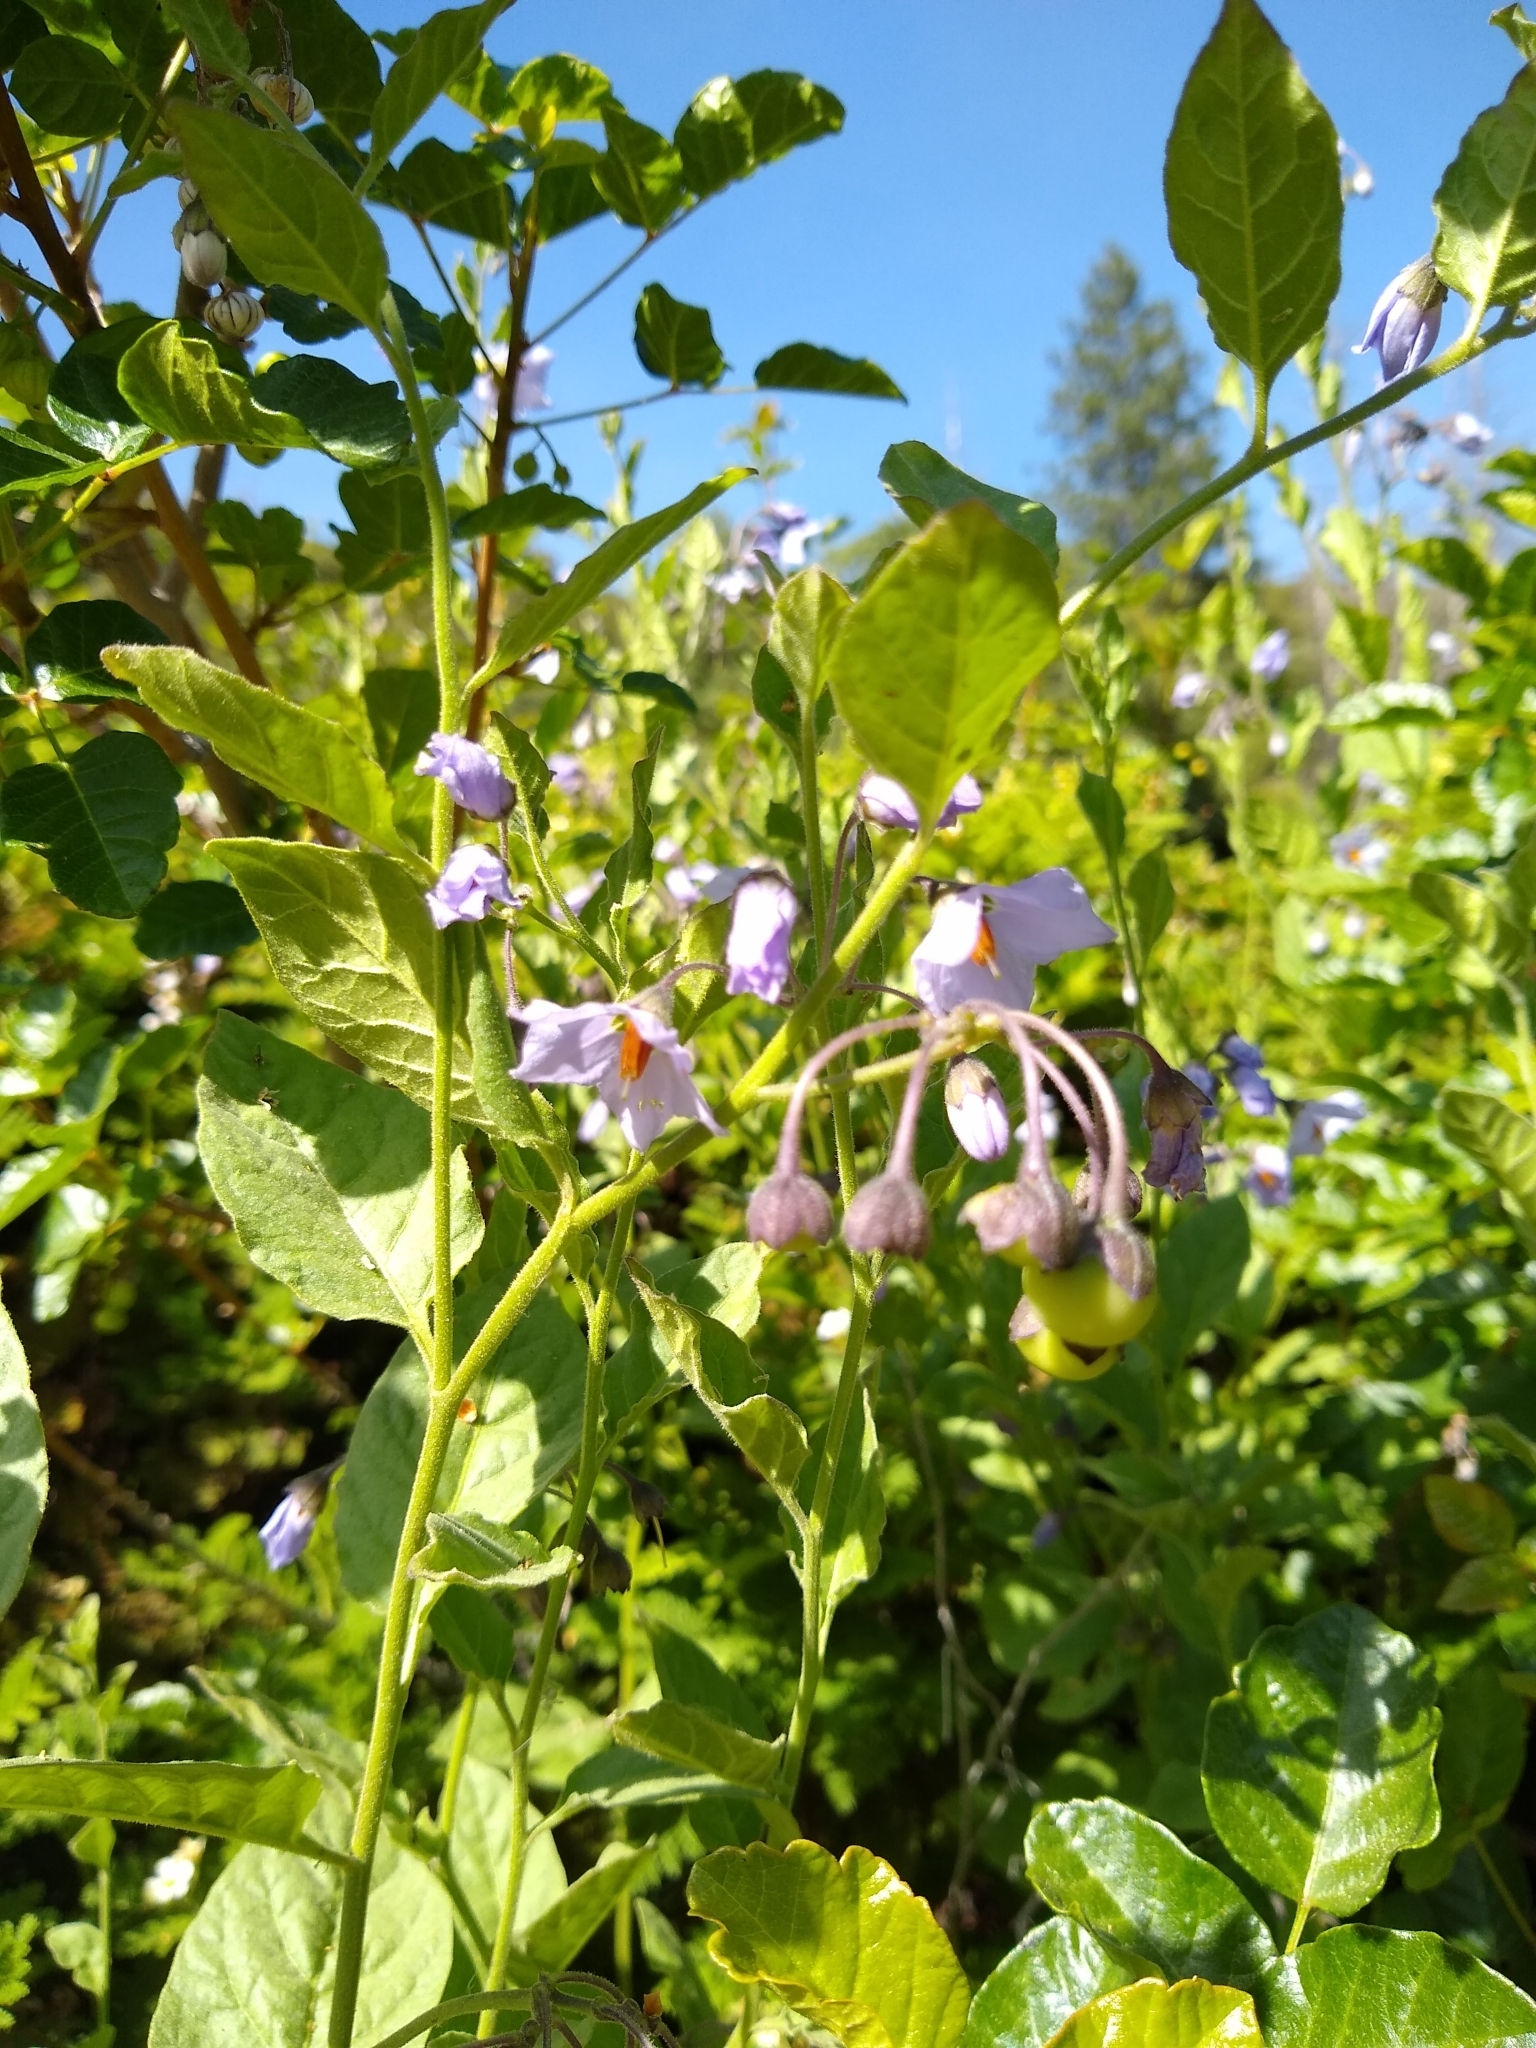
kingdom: Plantae
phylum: Tracheophyta
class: Magnoliopsida
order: Solanales
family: Solanaceae
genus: Solanum
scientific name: Solanum umbelliferum
